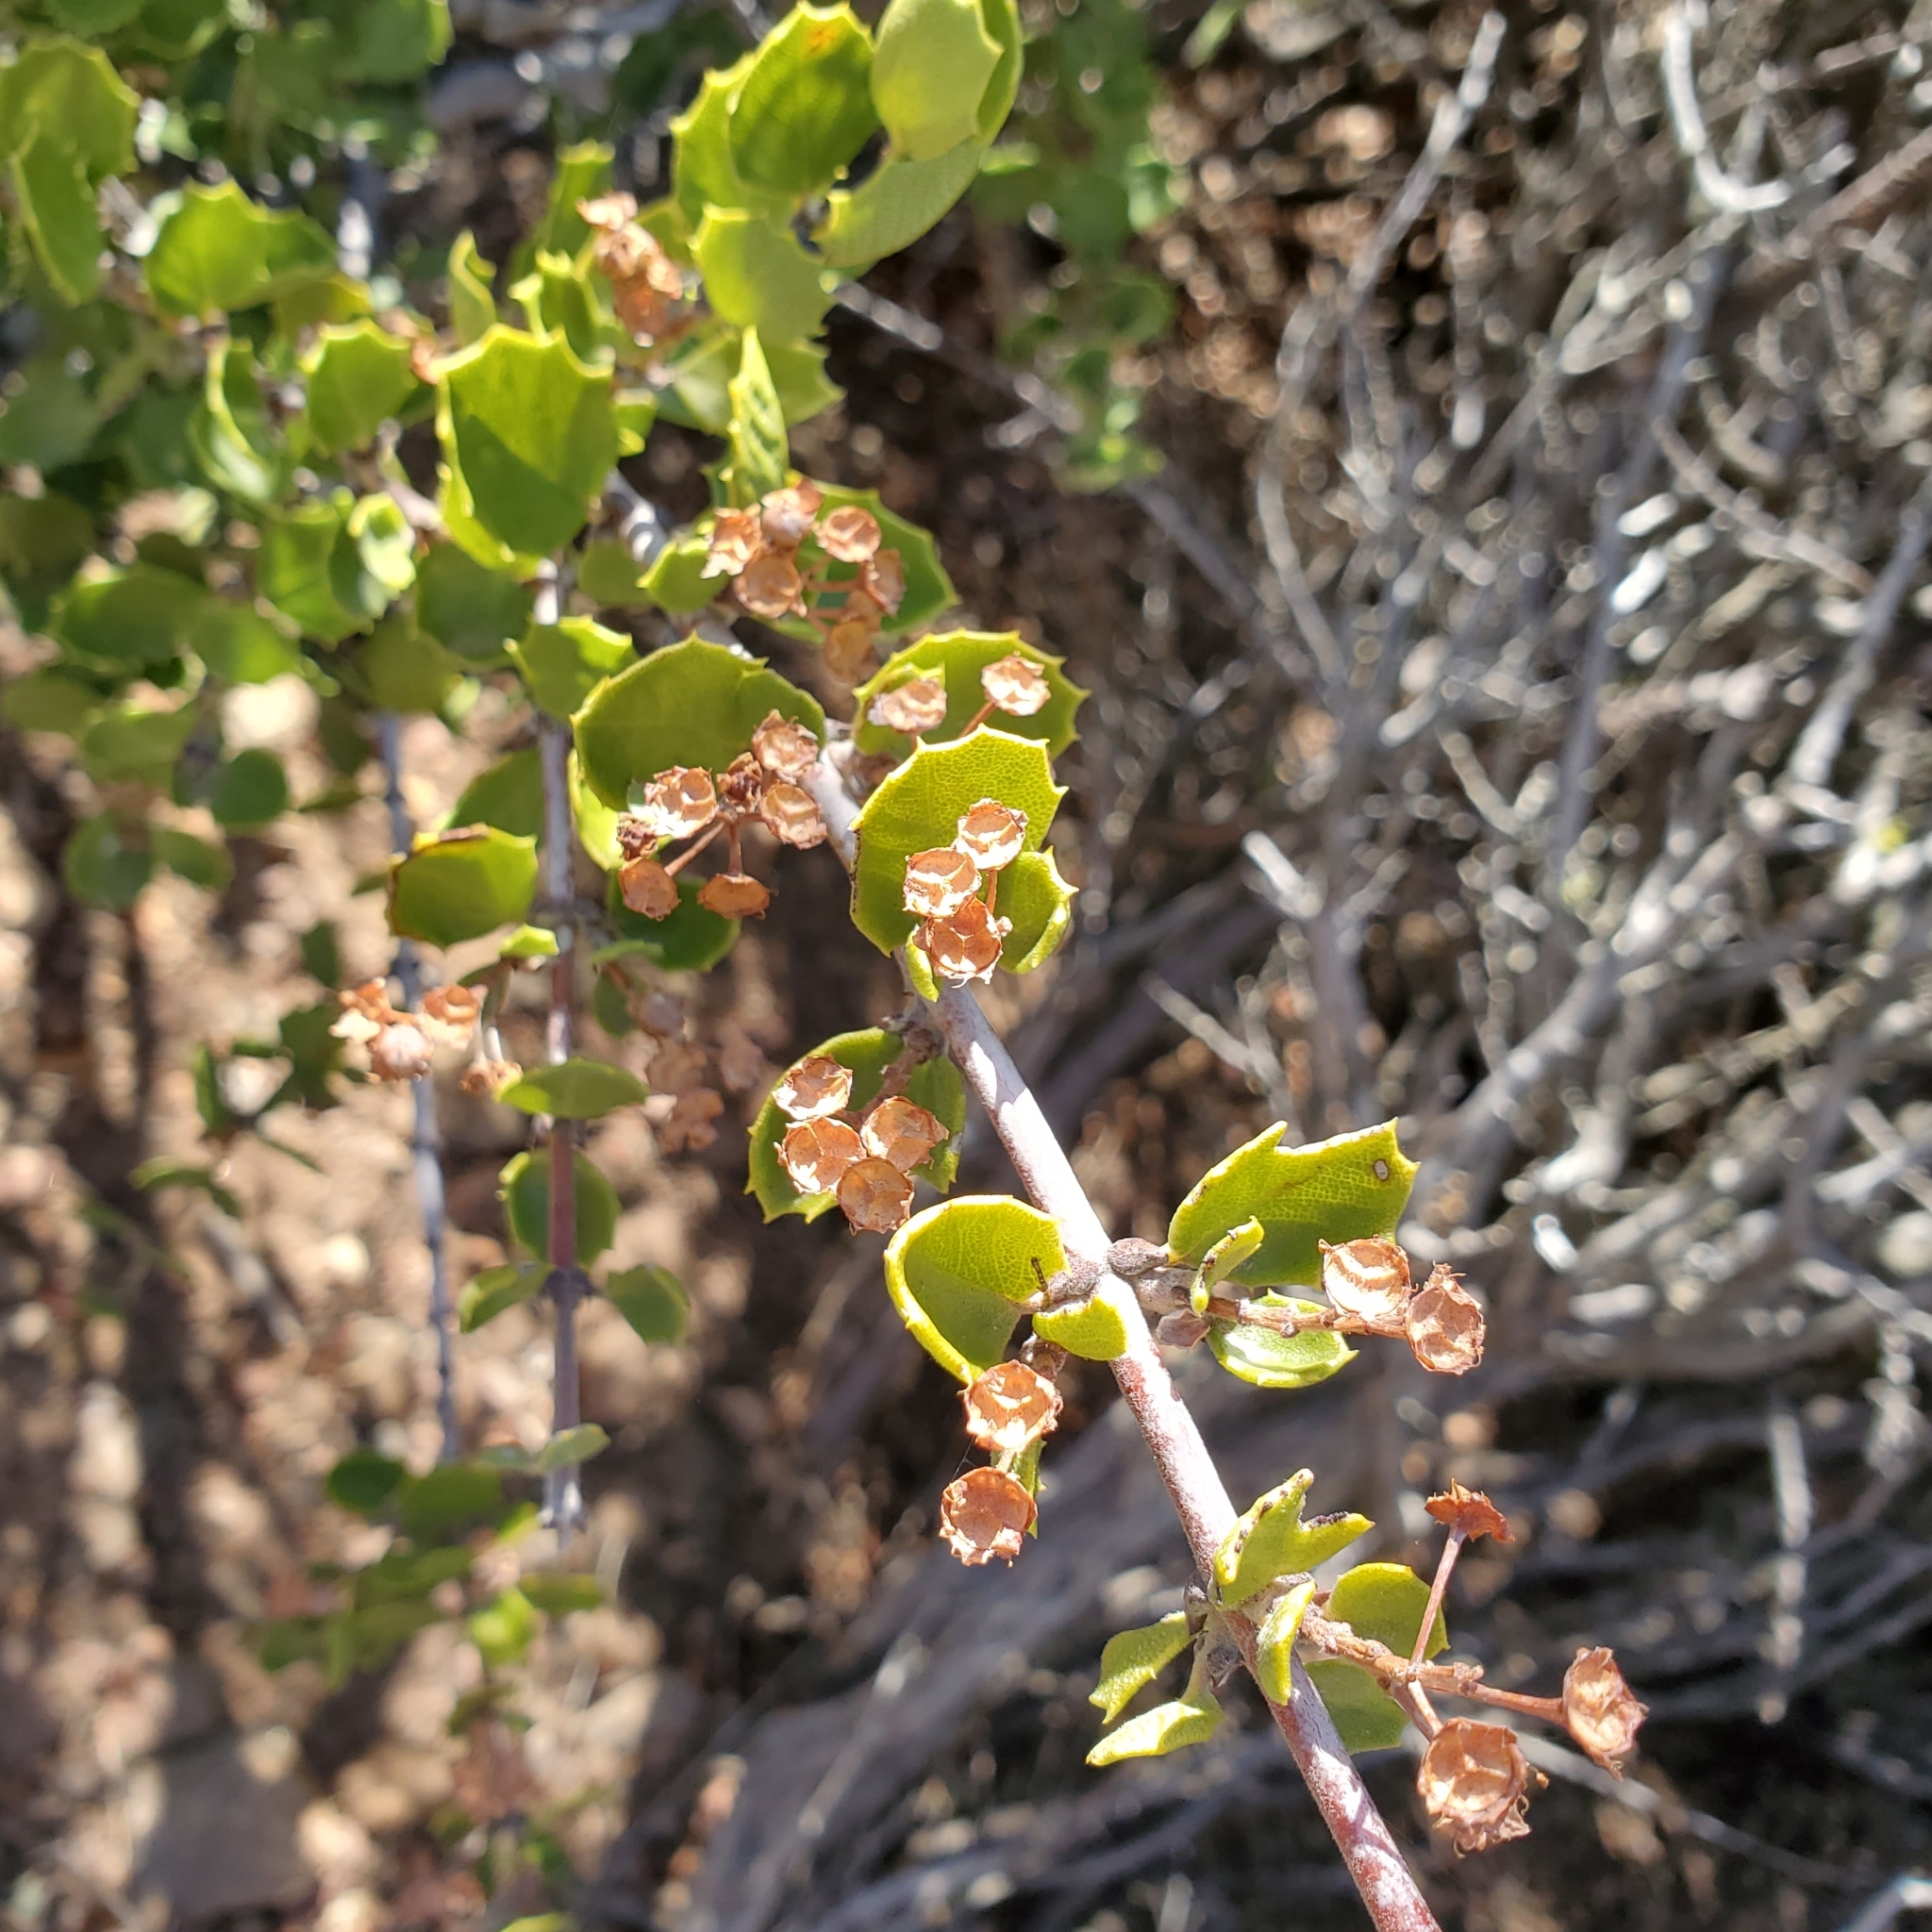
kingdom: Plantae
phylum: Tracheophyta
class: Magnoliopsida
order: Rosales
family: Rhamnaceae
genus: Ceanothus
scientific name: Ceanothus perplexans
